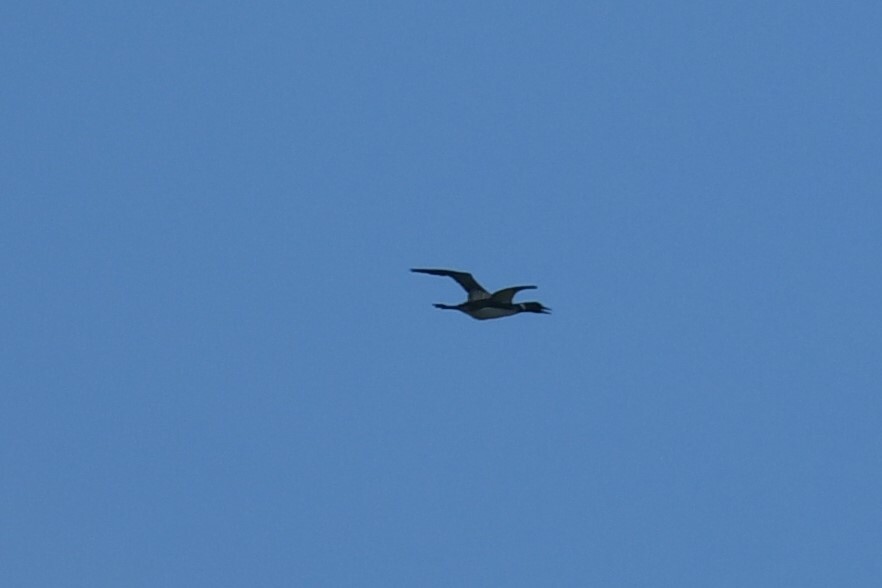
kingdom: Animalia
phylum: Chordata
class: Aves
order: Gaviiformes
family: Gaviidae
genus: Gavia
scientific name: Gavia immer
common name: Common loon
